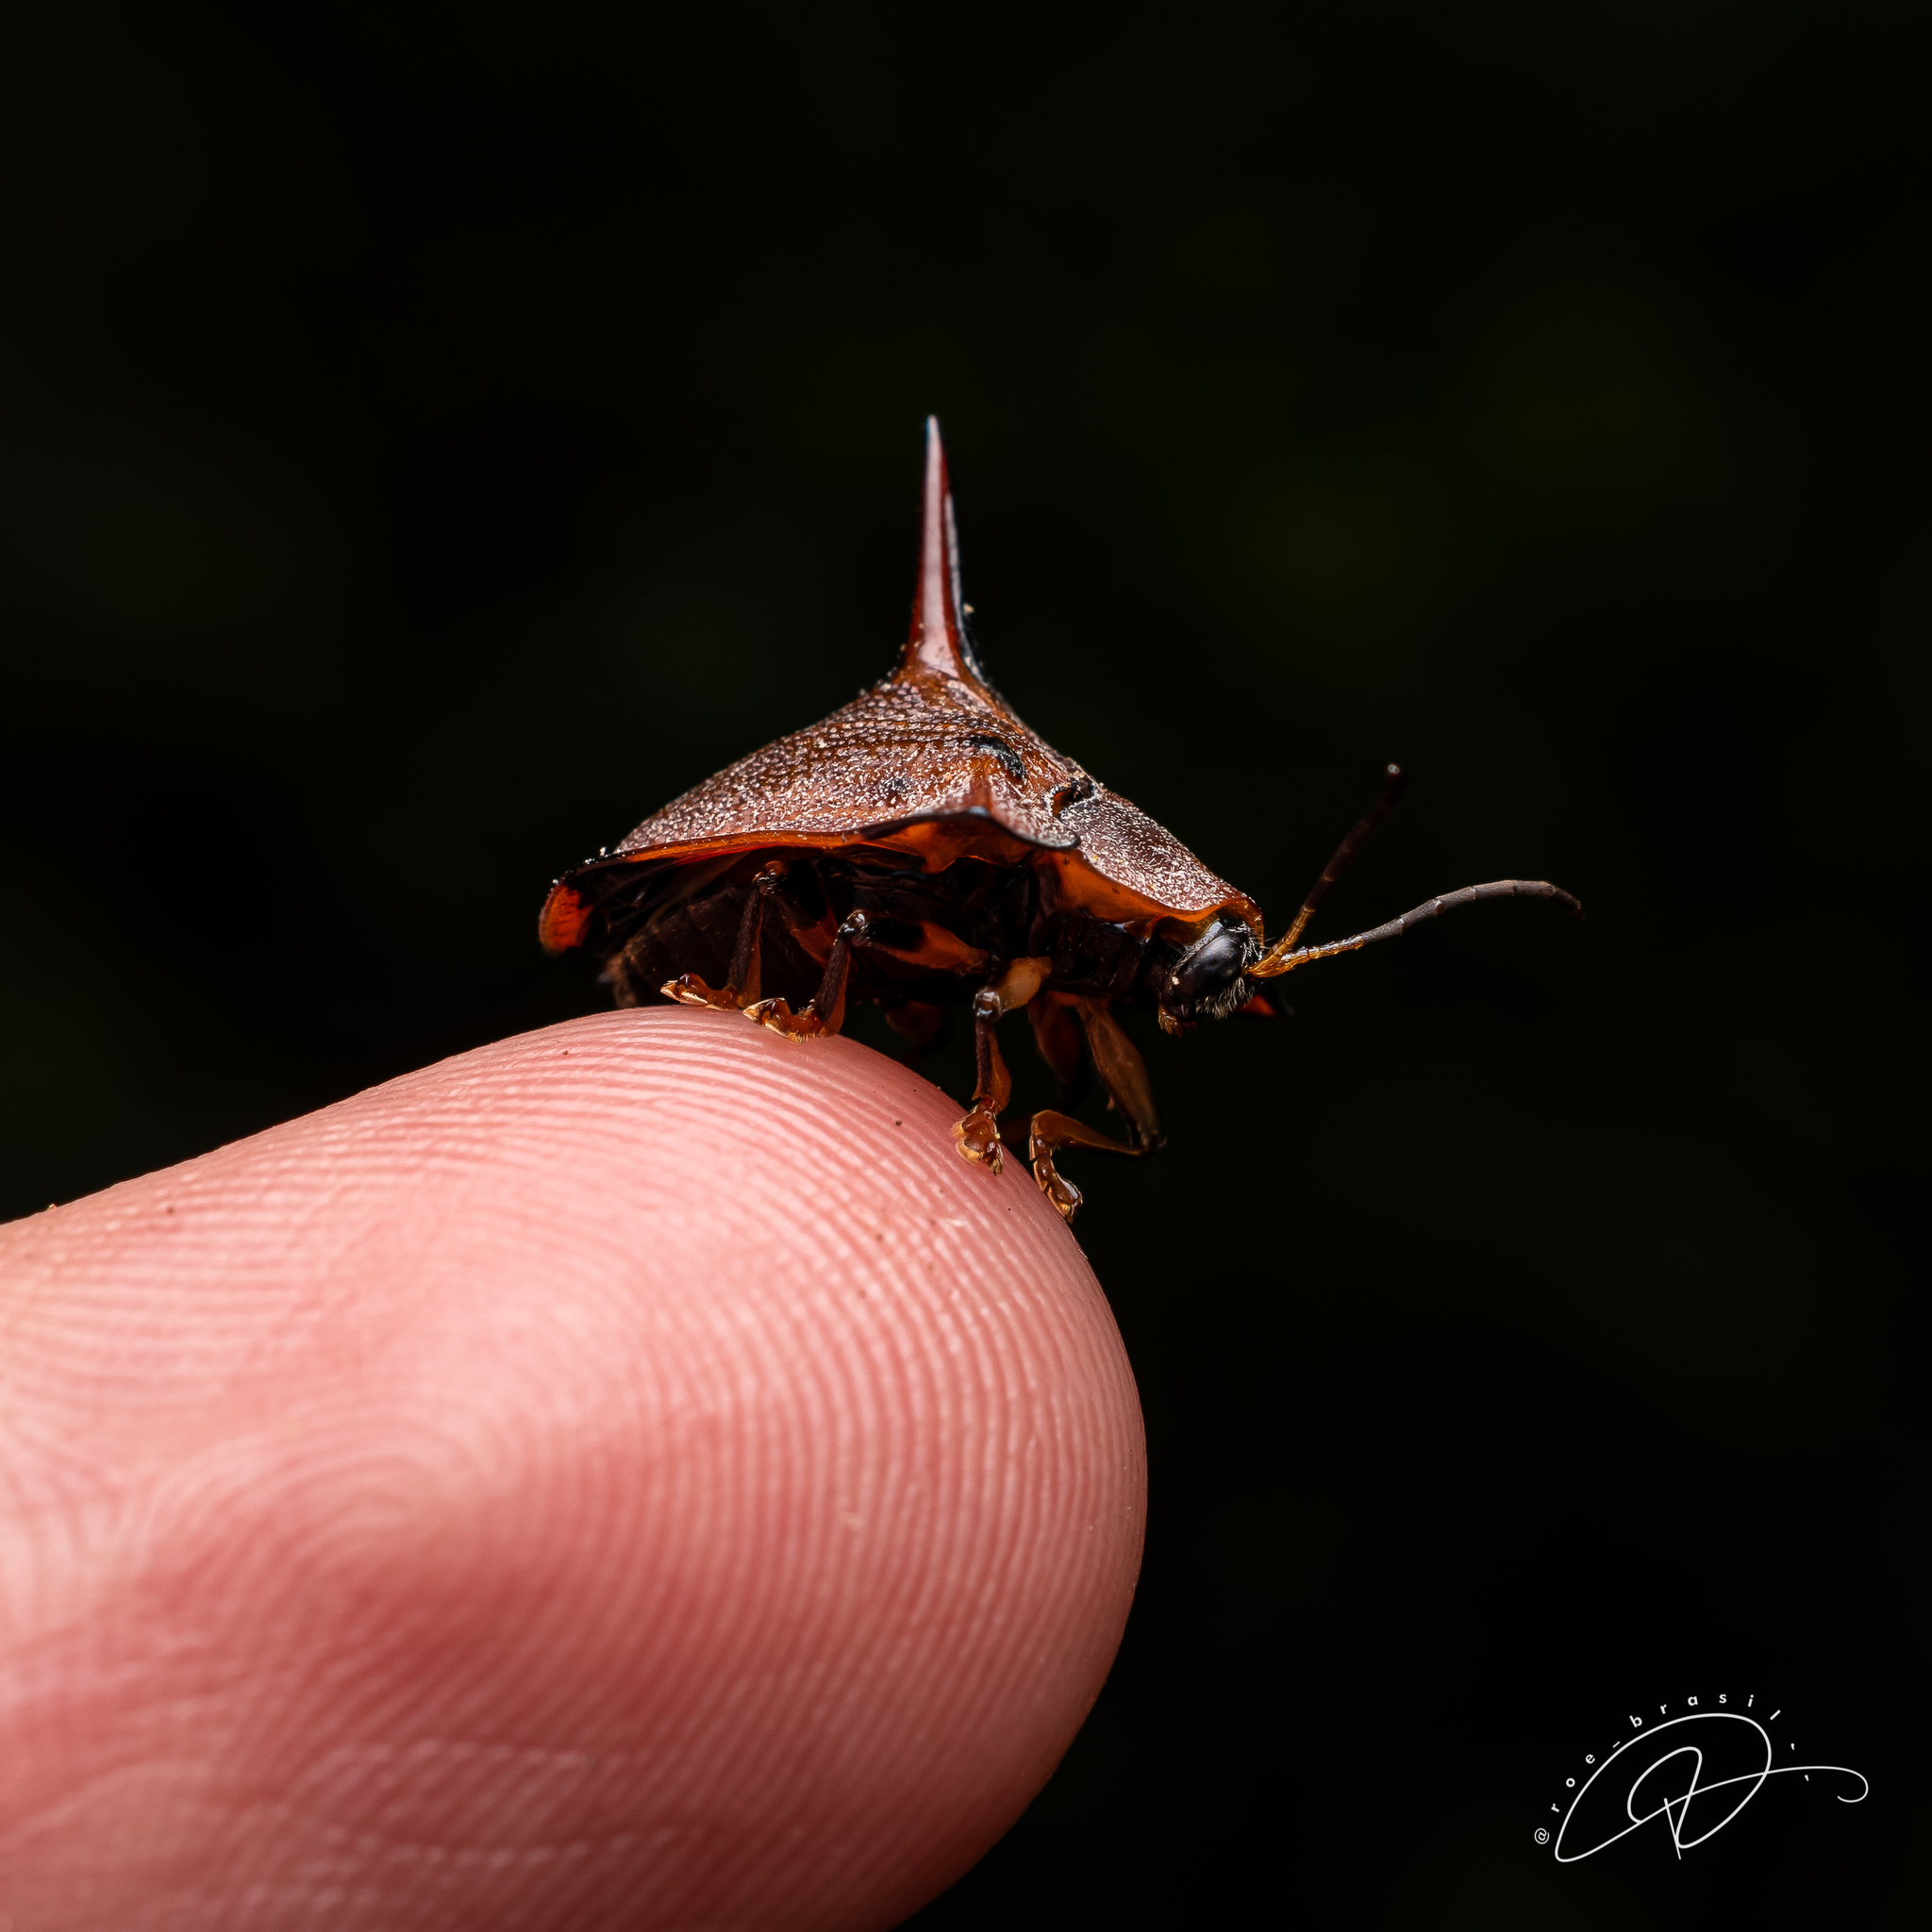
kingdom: Animalia
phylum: Arthropoda
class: Insecta
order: Coleoptera
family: Chrysomelidae
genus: Dorynota
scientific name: Dorynota monoceros
